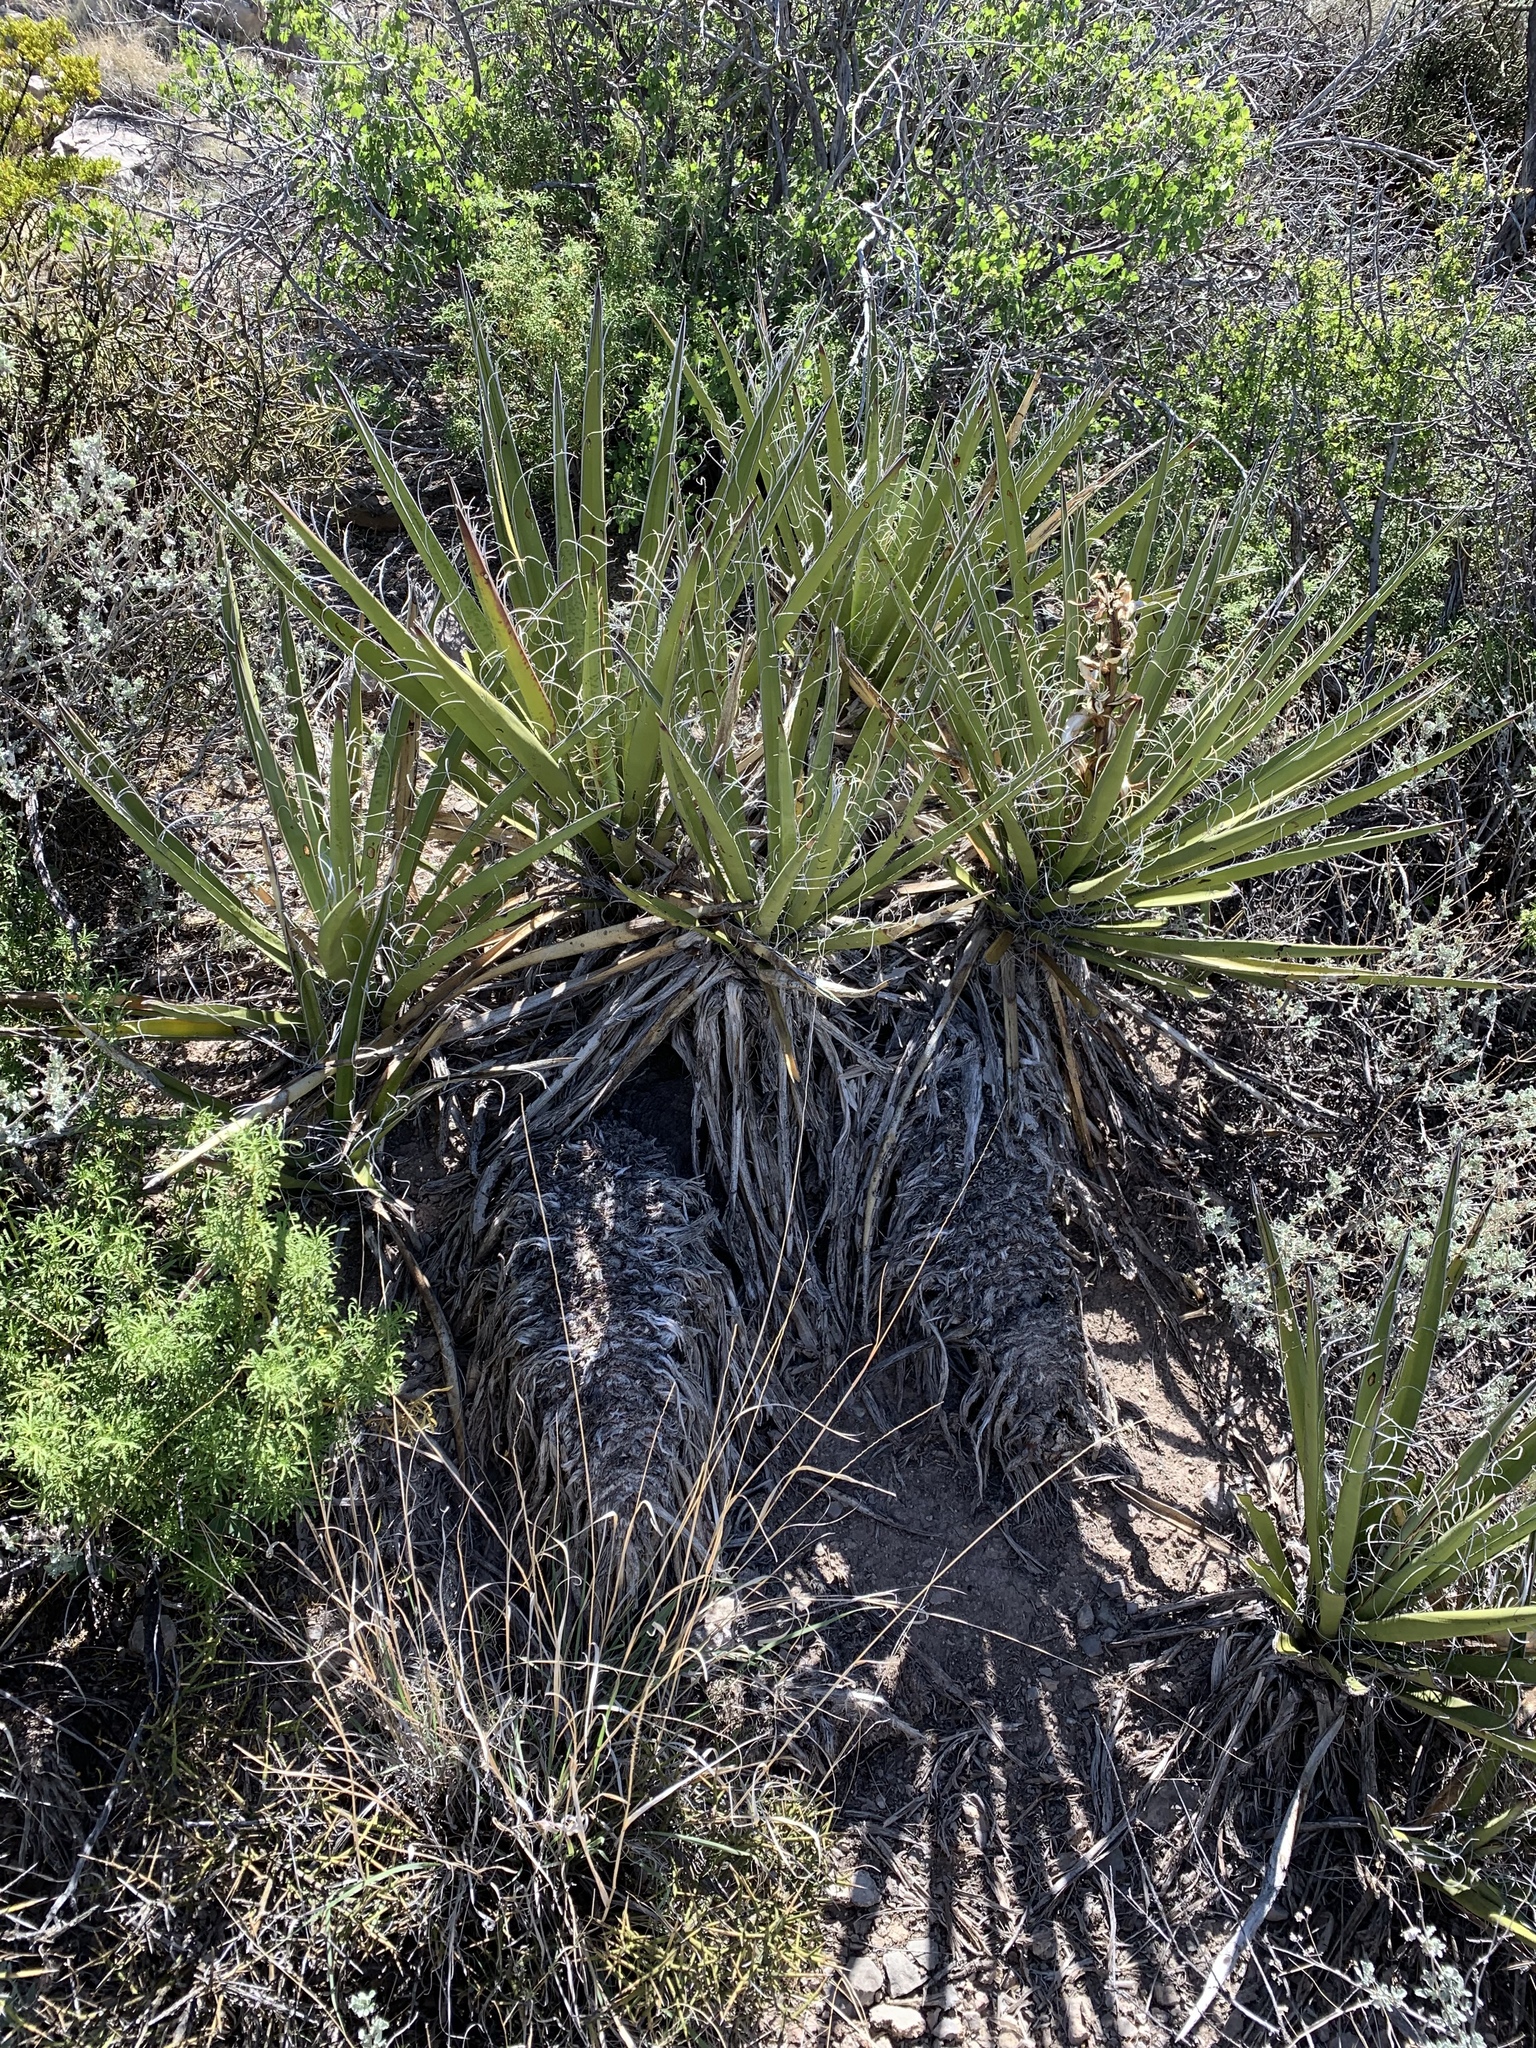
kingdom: Plantae
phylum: Tracheophyta
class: Liliopsida
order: Asparagales
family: Asparagaceae
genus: Yucca
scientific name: Yucca baccata
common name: Banana yucca
